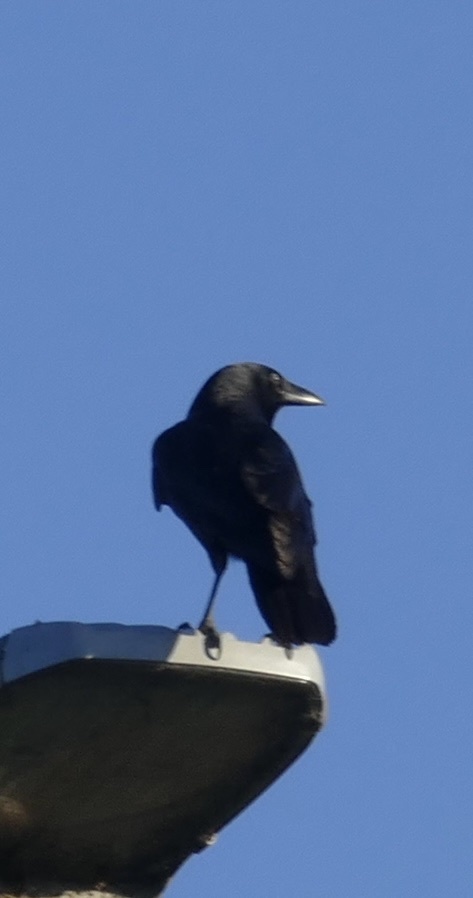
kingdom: Animalia
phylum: Chordata
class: Aves
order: Passeriformes
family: Corvidae
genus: Corvus
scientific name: Corvus orru
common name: Torresian crow
